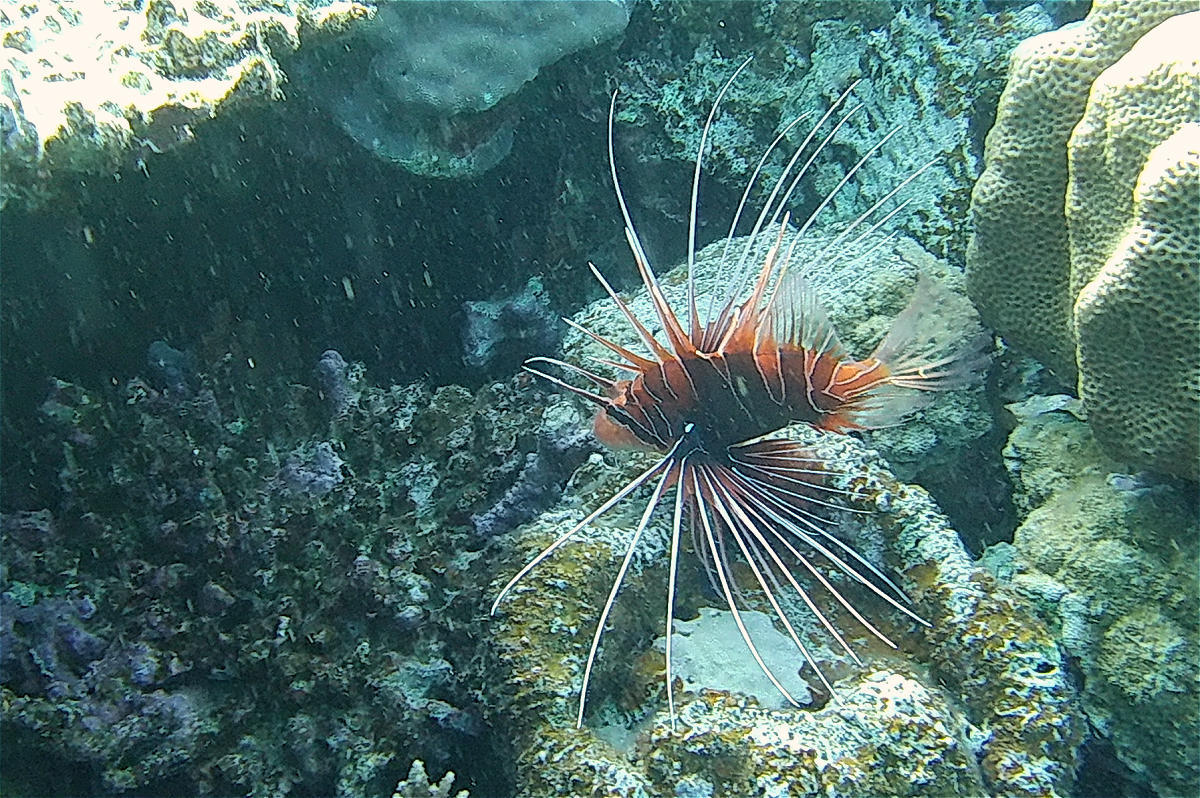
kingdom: Animalia
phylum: Chordata
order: Scorpaeniformes
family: Scorpaenidae
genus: Pterois
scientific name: Pterois cincta
